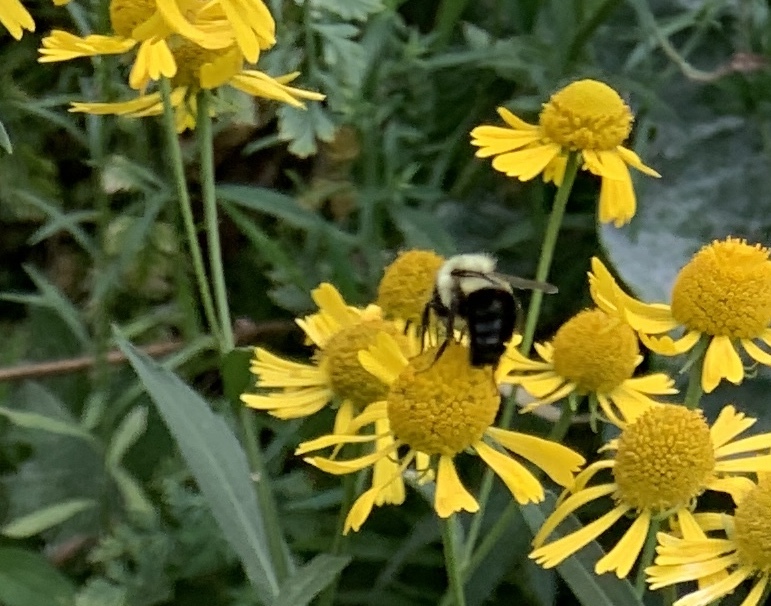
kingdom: Animalia
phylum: Arthropoda
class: Insecta
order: Hymenoptera
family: Apidae
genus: Bombus
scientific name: Bombus impatiens
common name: Common eastern bumble bee
